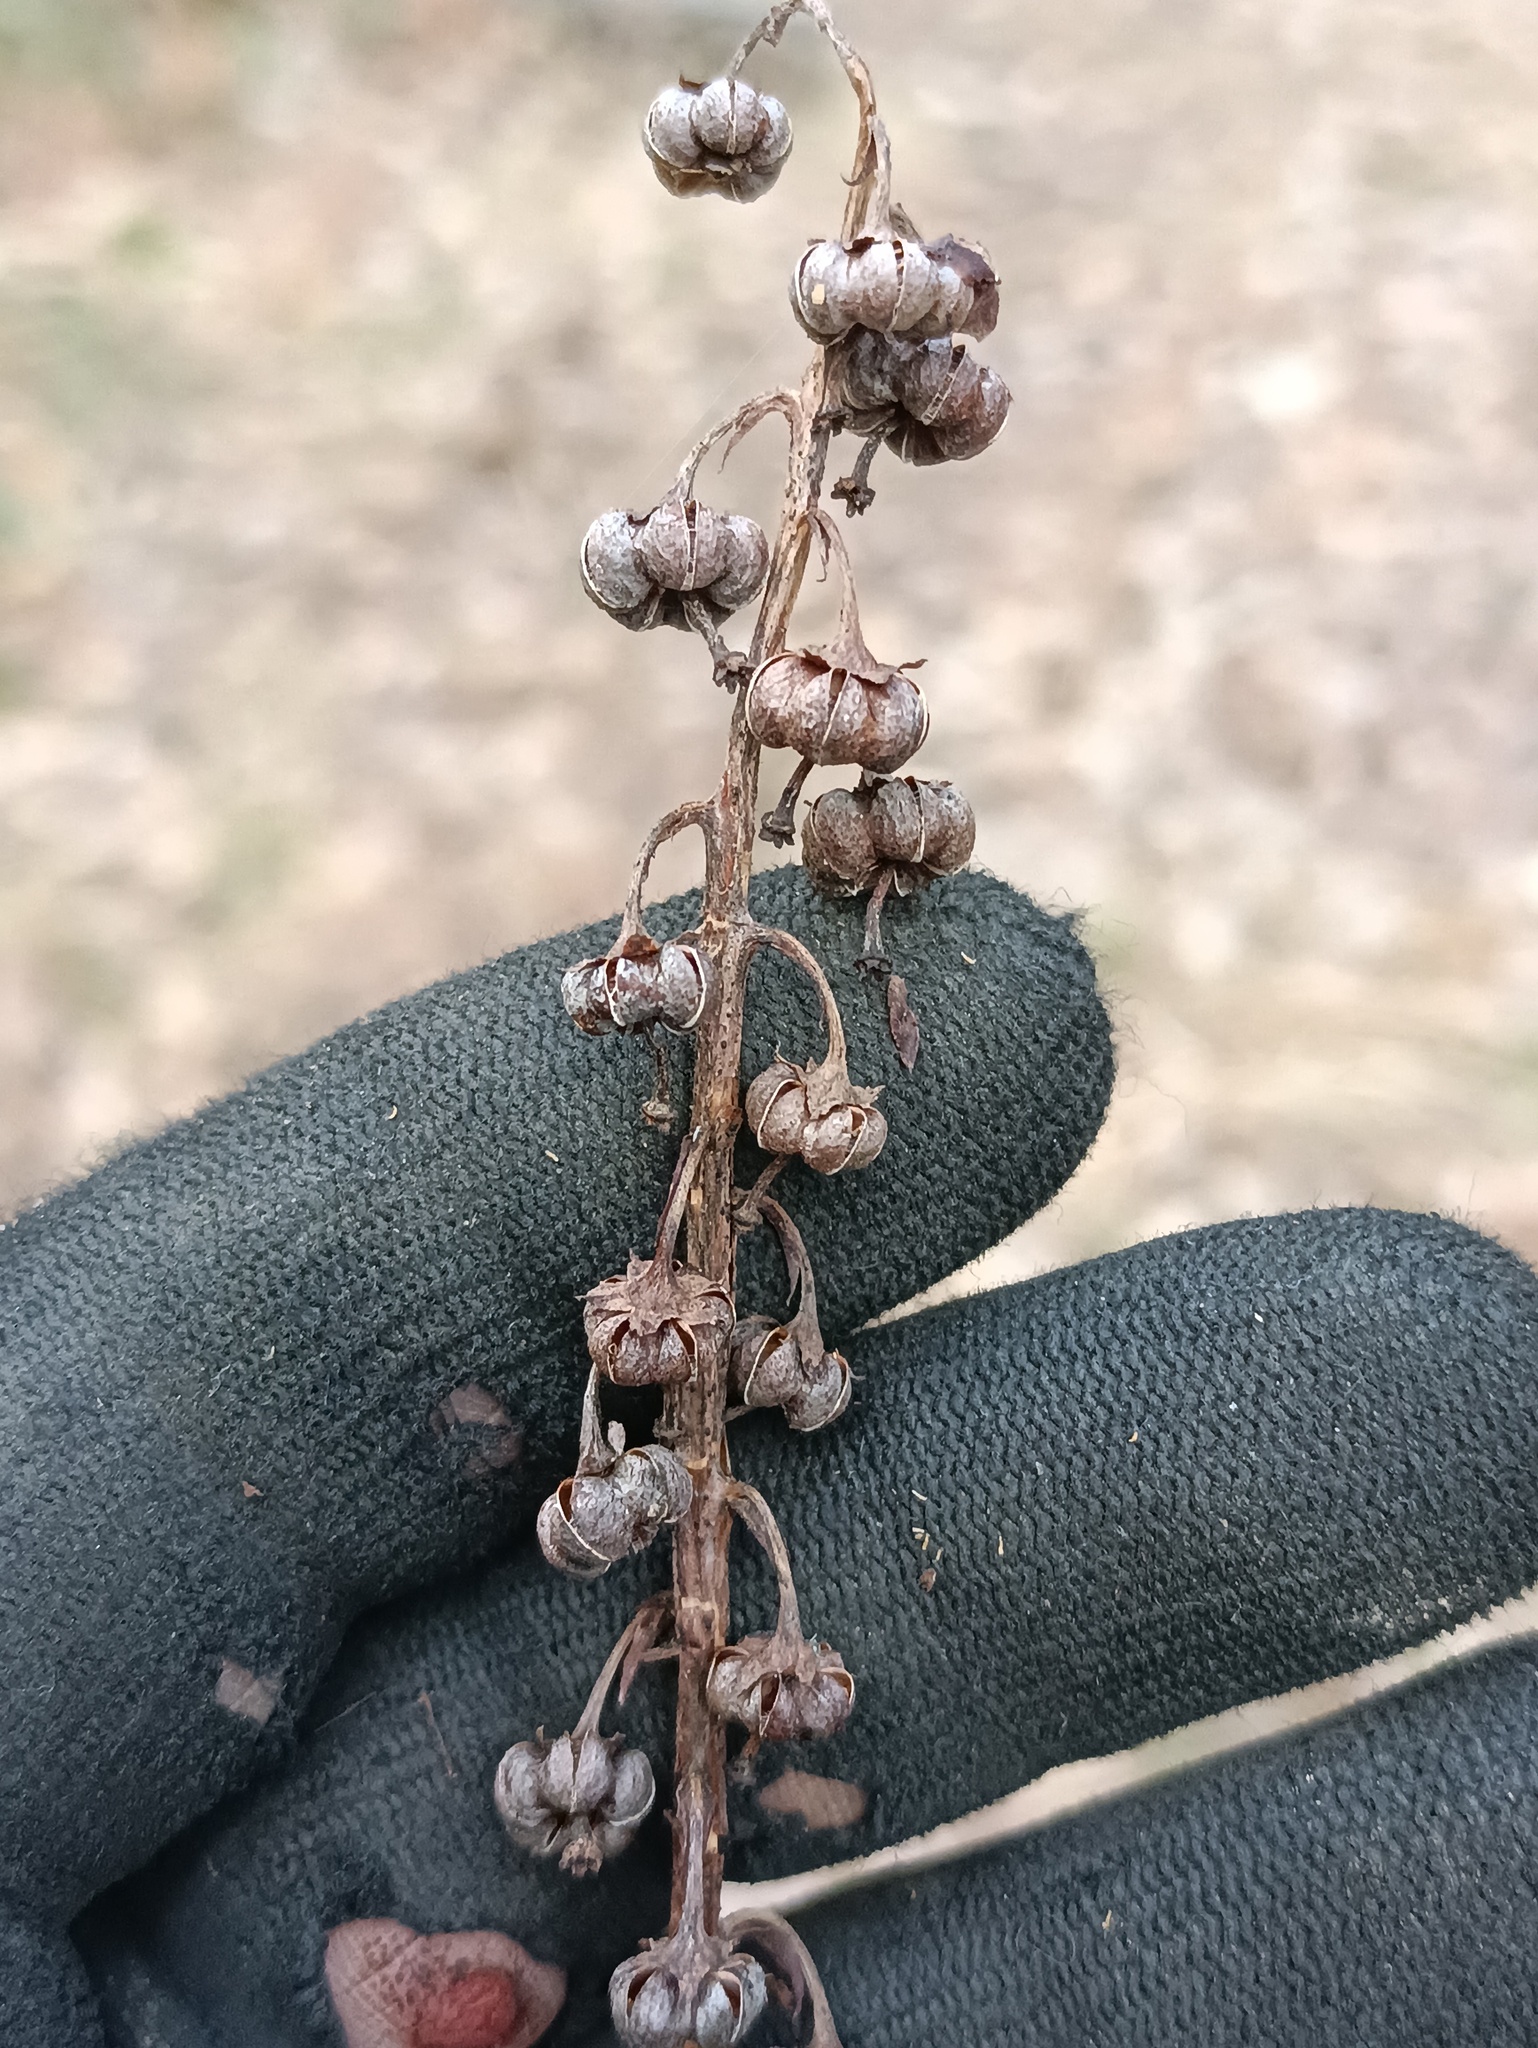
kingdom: Plantae
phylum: Tracheophyta
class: Magnoliopsida
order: Ericales
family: Ericaceae
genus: Pyrola
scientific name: Pyrola rotundifolia
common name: Round-leaved wintergreen
